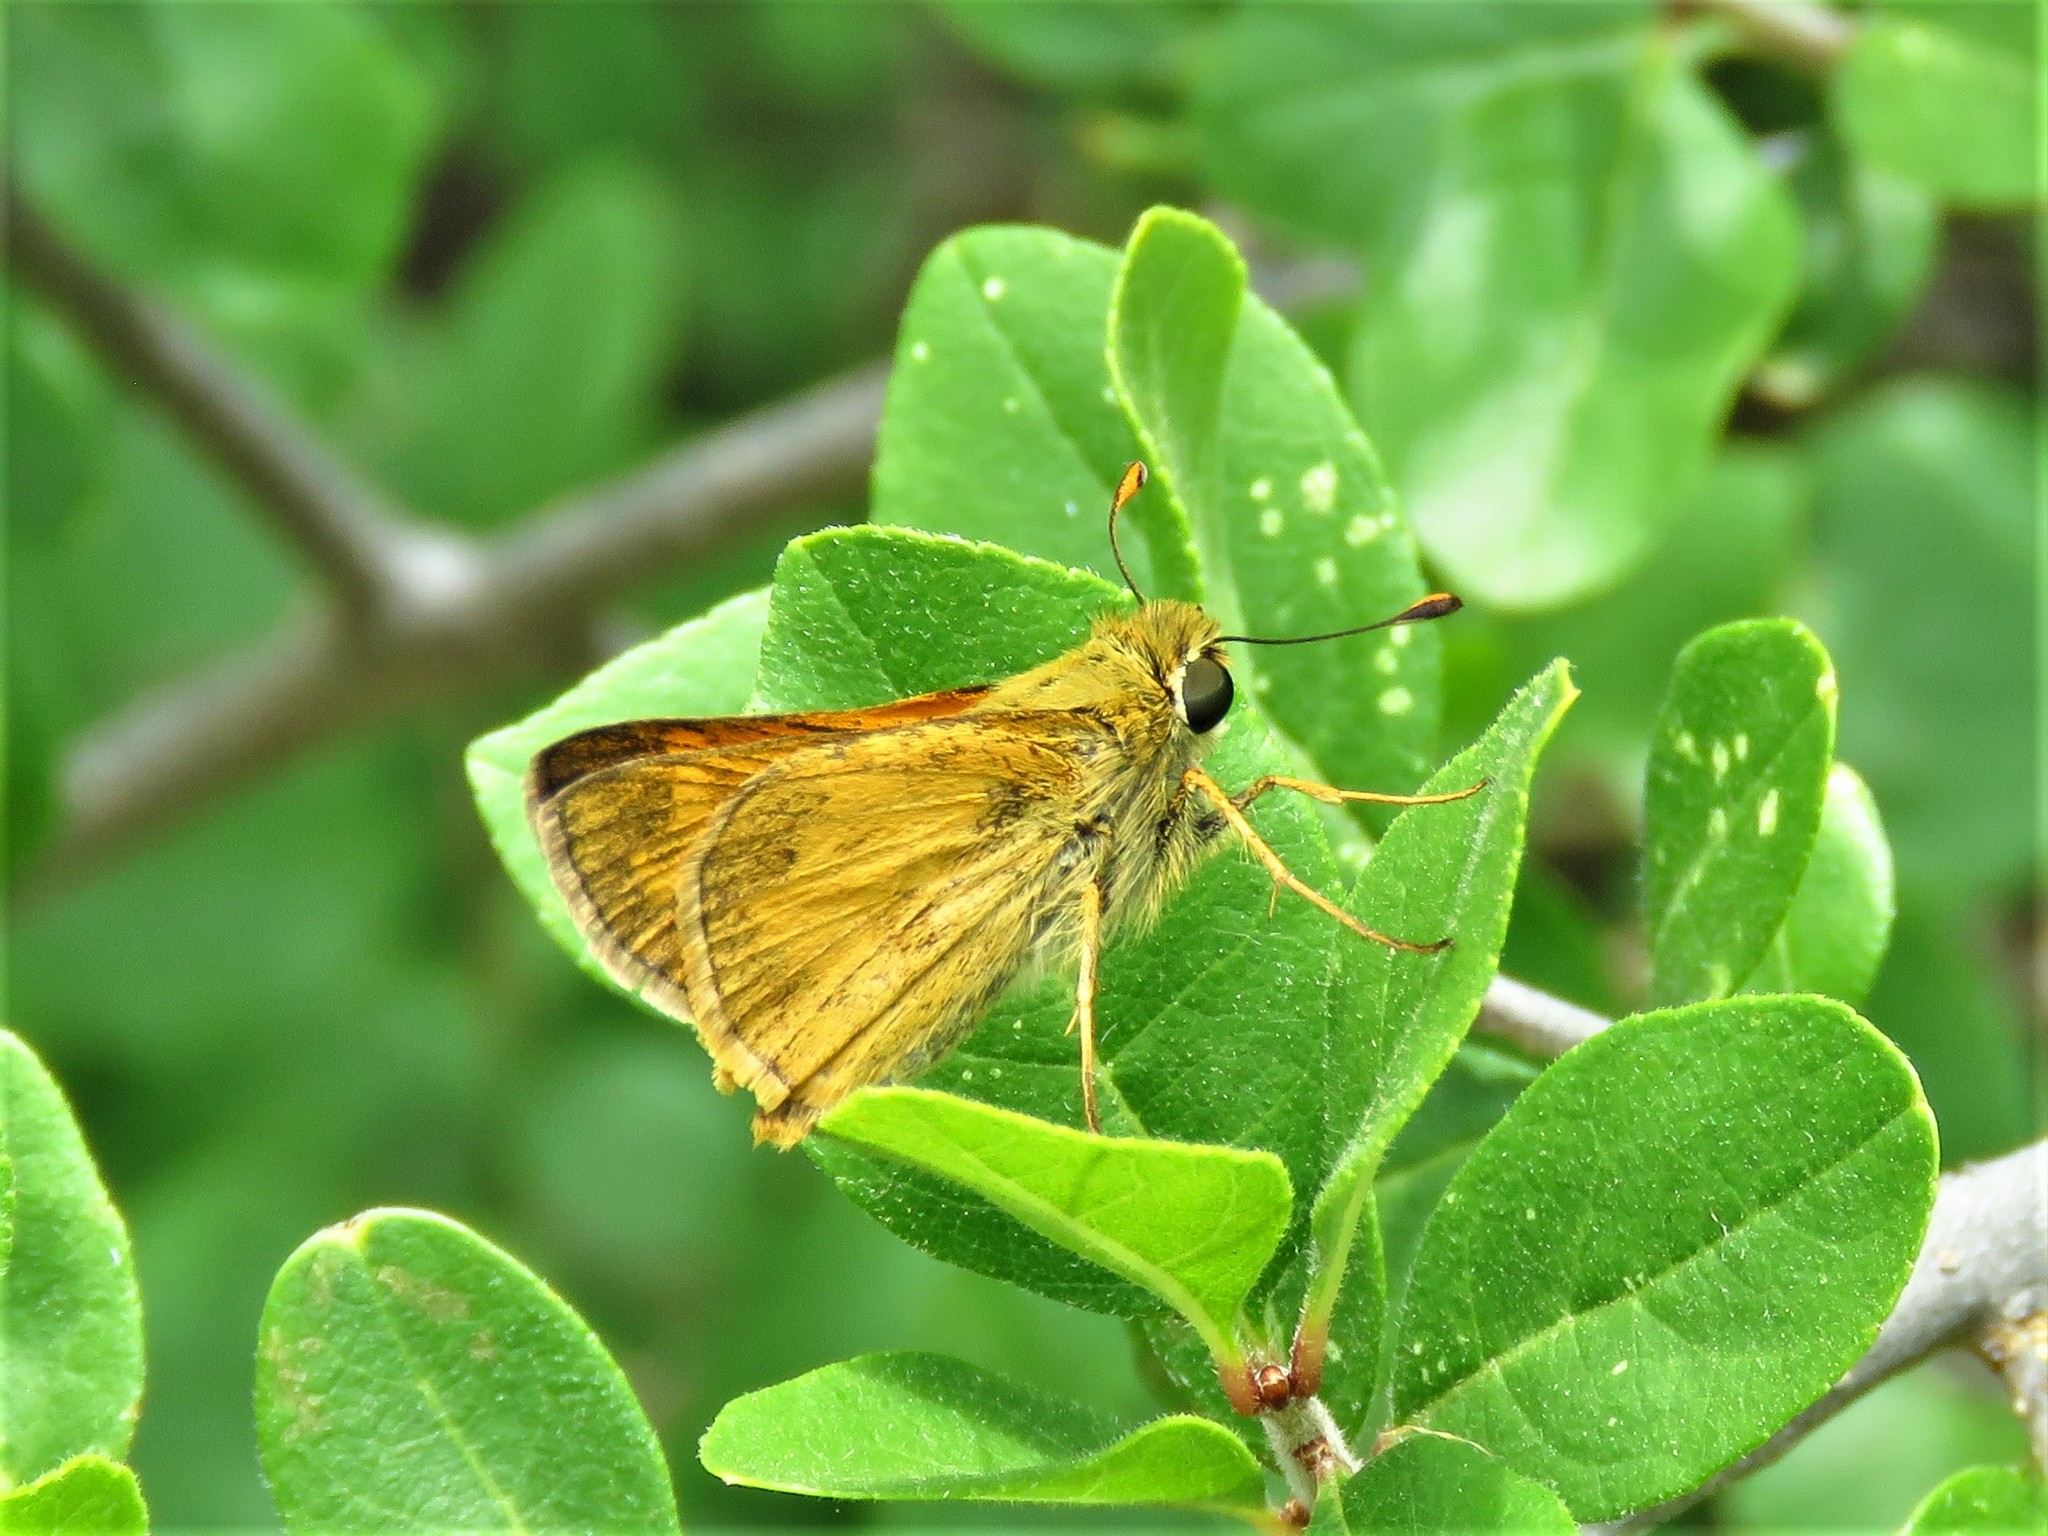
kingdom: Animalia
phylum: Arthropoda
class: Insecta
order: Lepidoptera
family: Hesperiidae
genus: Atalopedes
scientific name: Atalopedes
